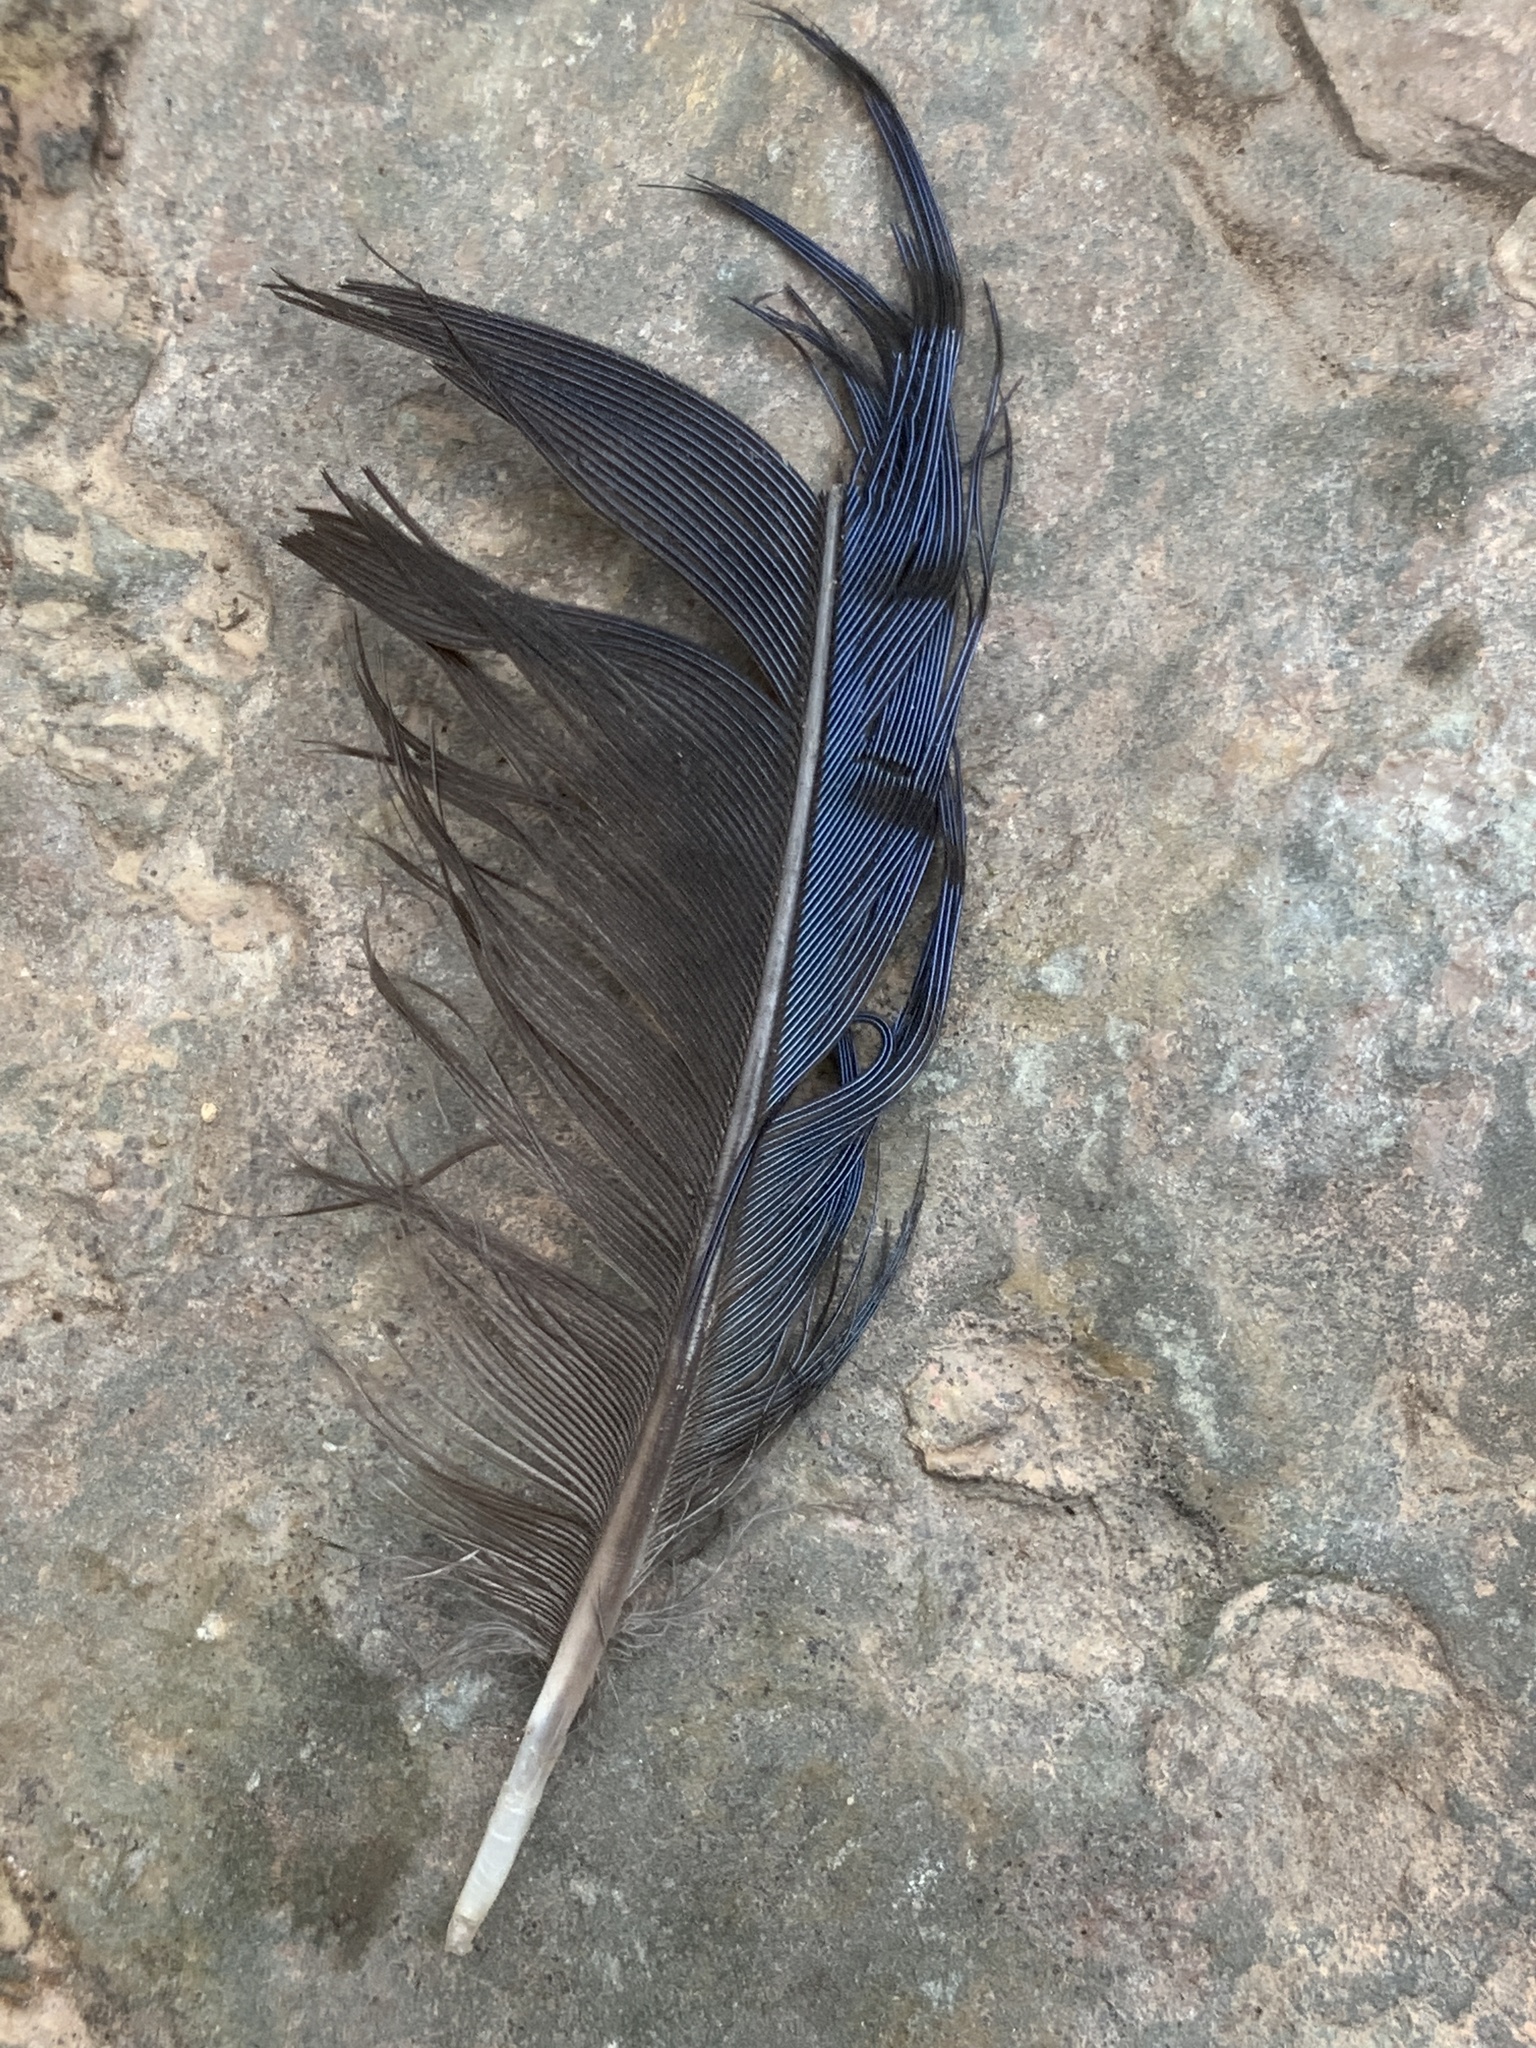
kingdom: Animalia
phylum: Chordata
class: Aves
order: Passeriformes
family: Corvidae
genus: Cyanocitta
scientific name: Cyanocitta stelleri
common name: Steller's jay
